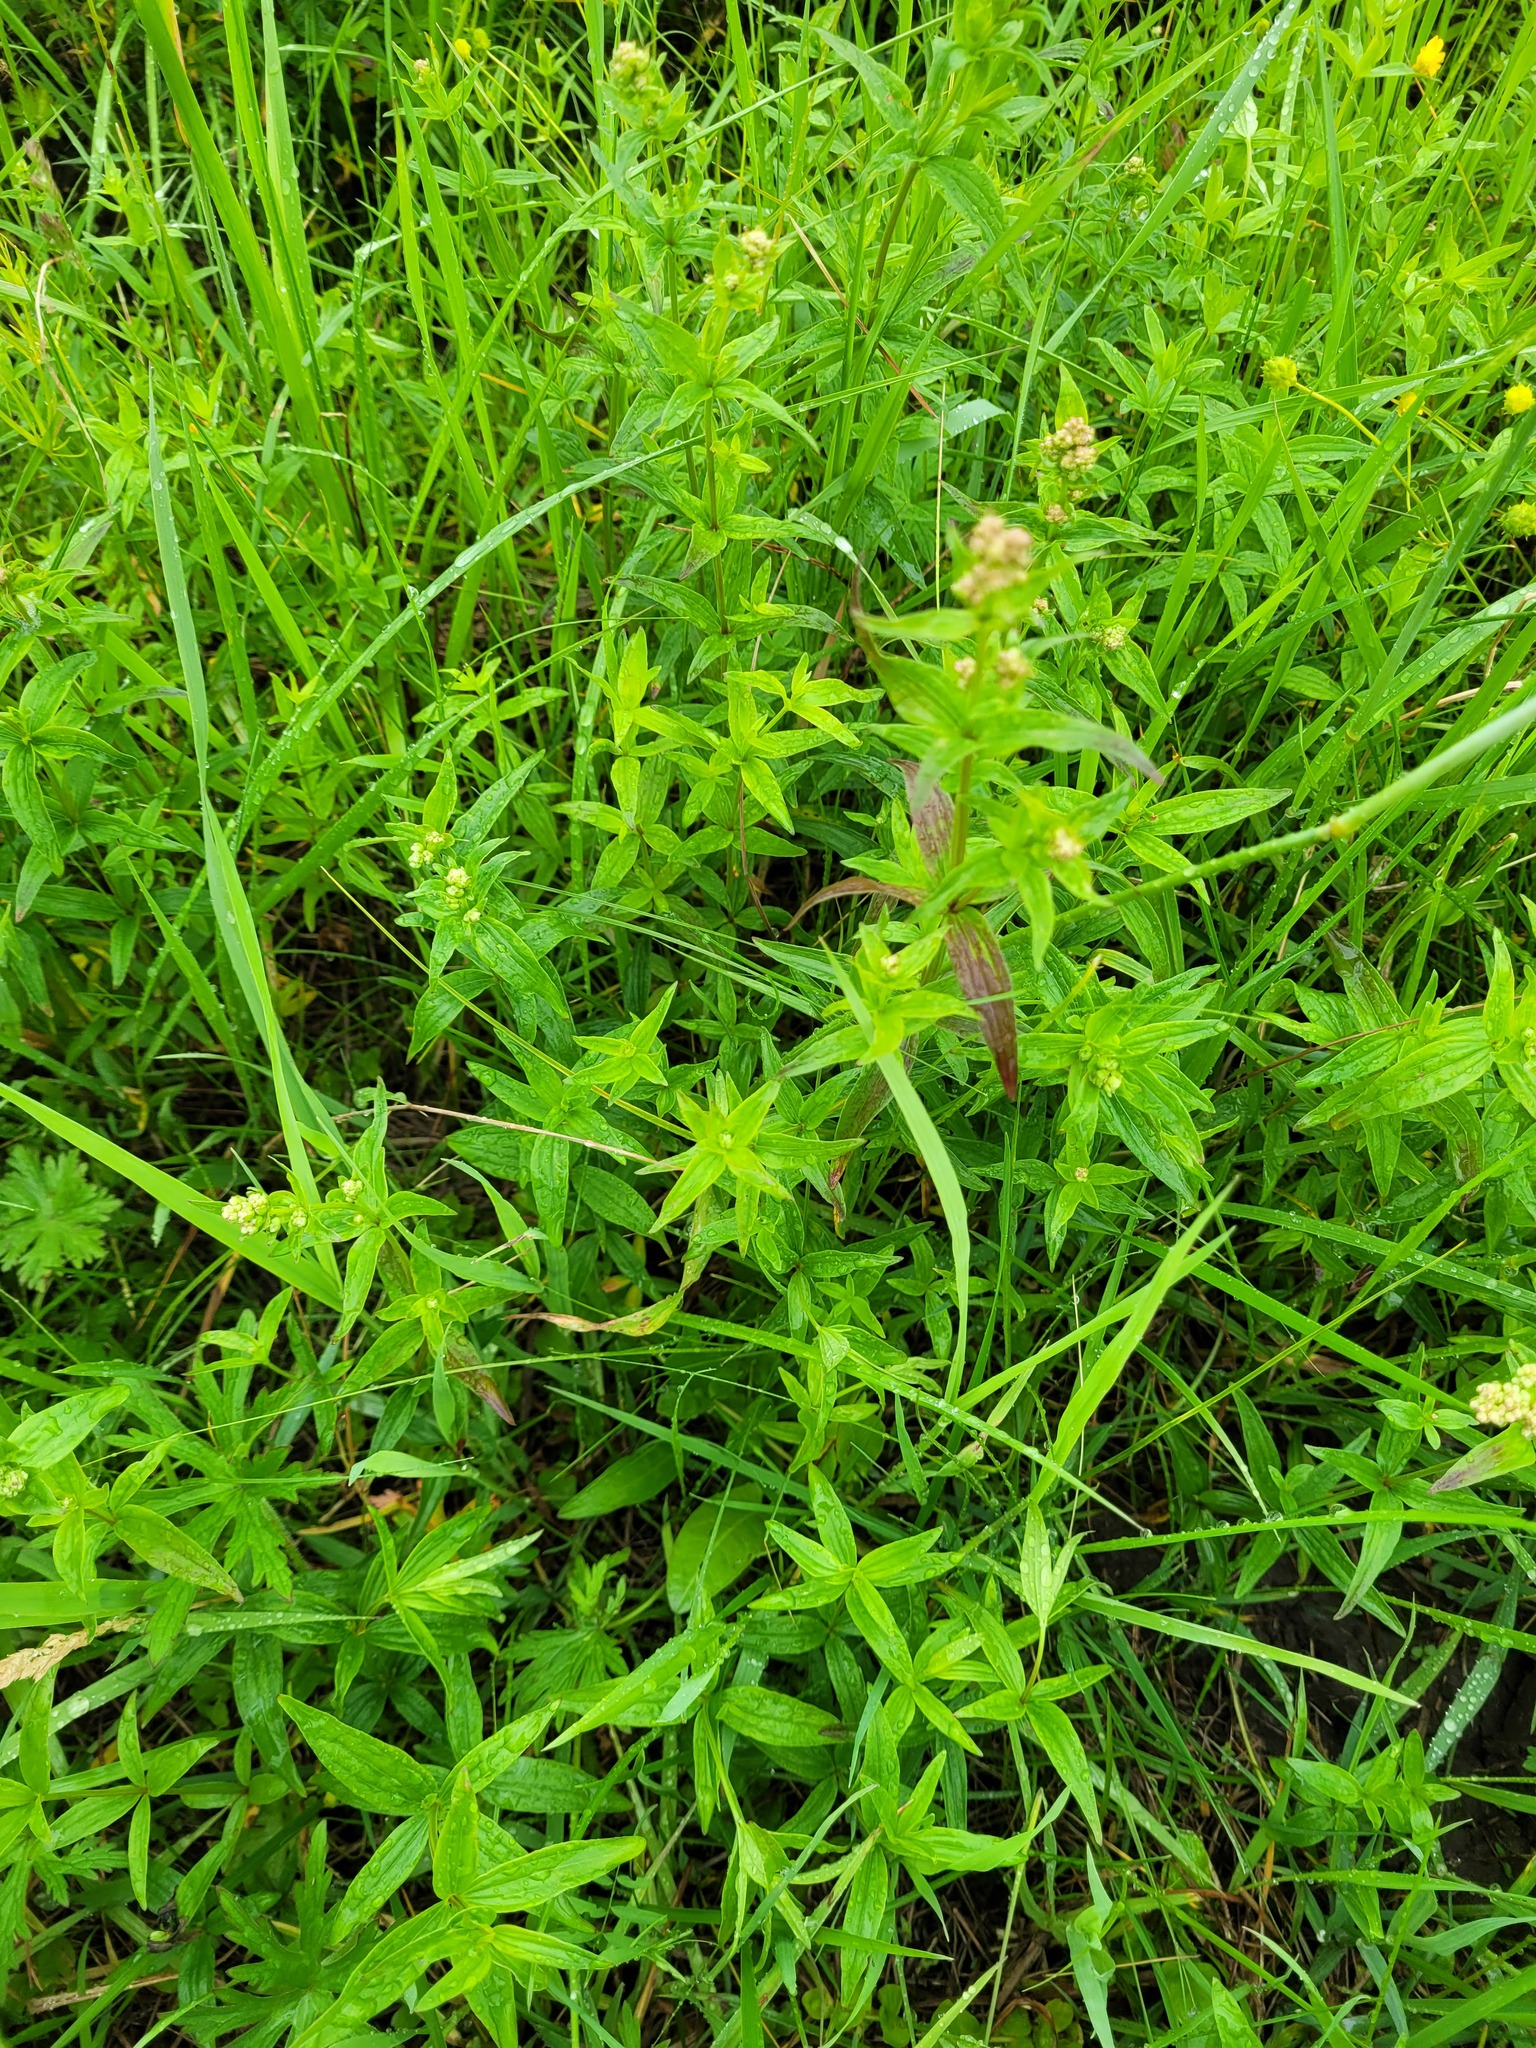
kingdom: Plantae
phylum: Tracheophyta
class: Magnoliopsida
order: Gentianales
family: Rubiaceae
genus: Galium
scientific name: Galium rubioides
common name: European bedstraw
